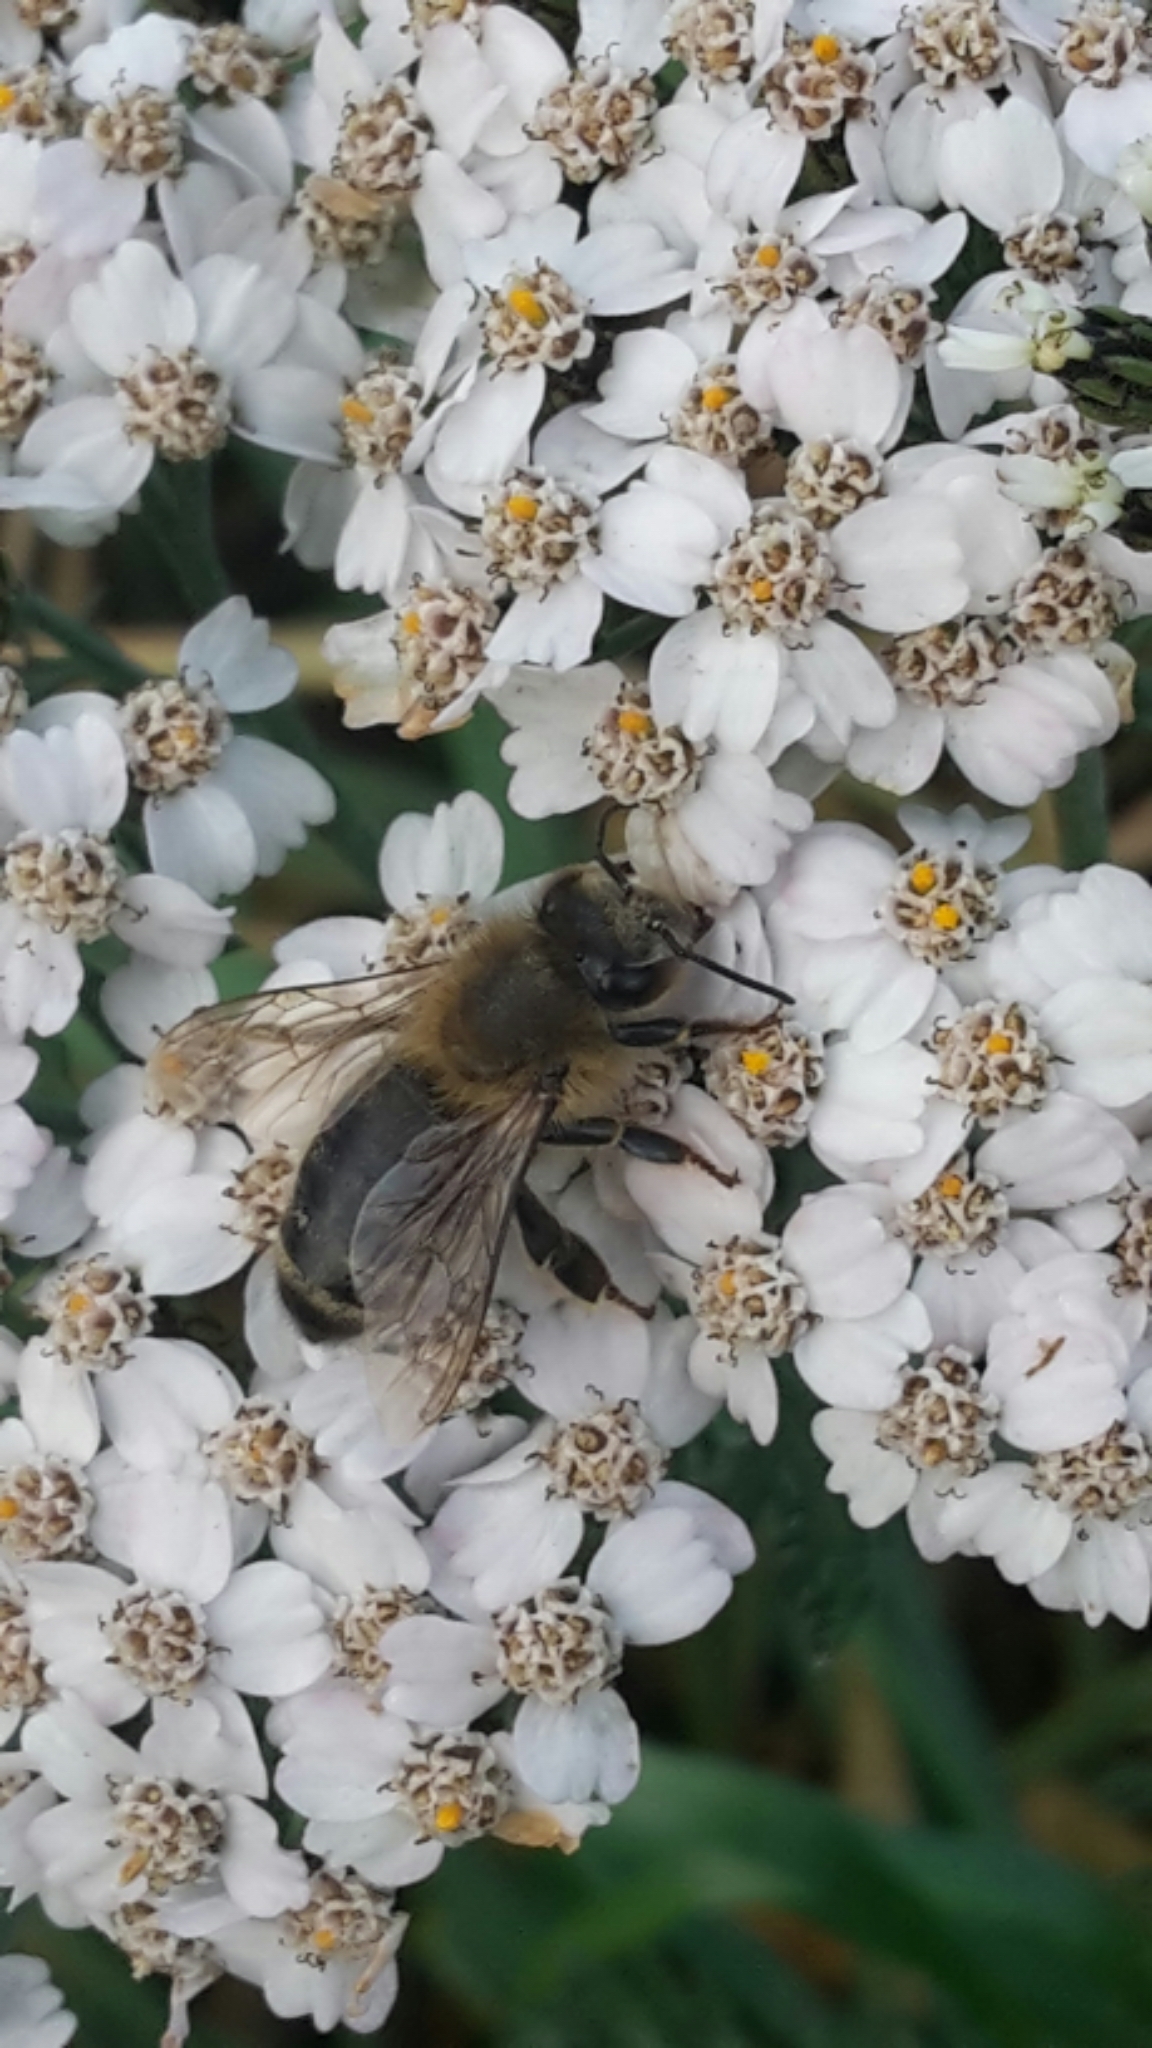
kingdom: Animalia
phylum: Arthropoda
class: Insecta
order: Hymenoptera
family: Apidae
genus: Apis
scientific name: Apis mellifera
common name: Honey bee
